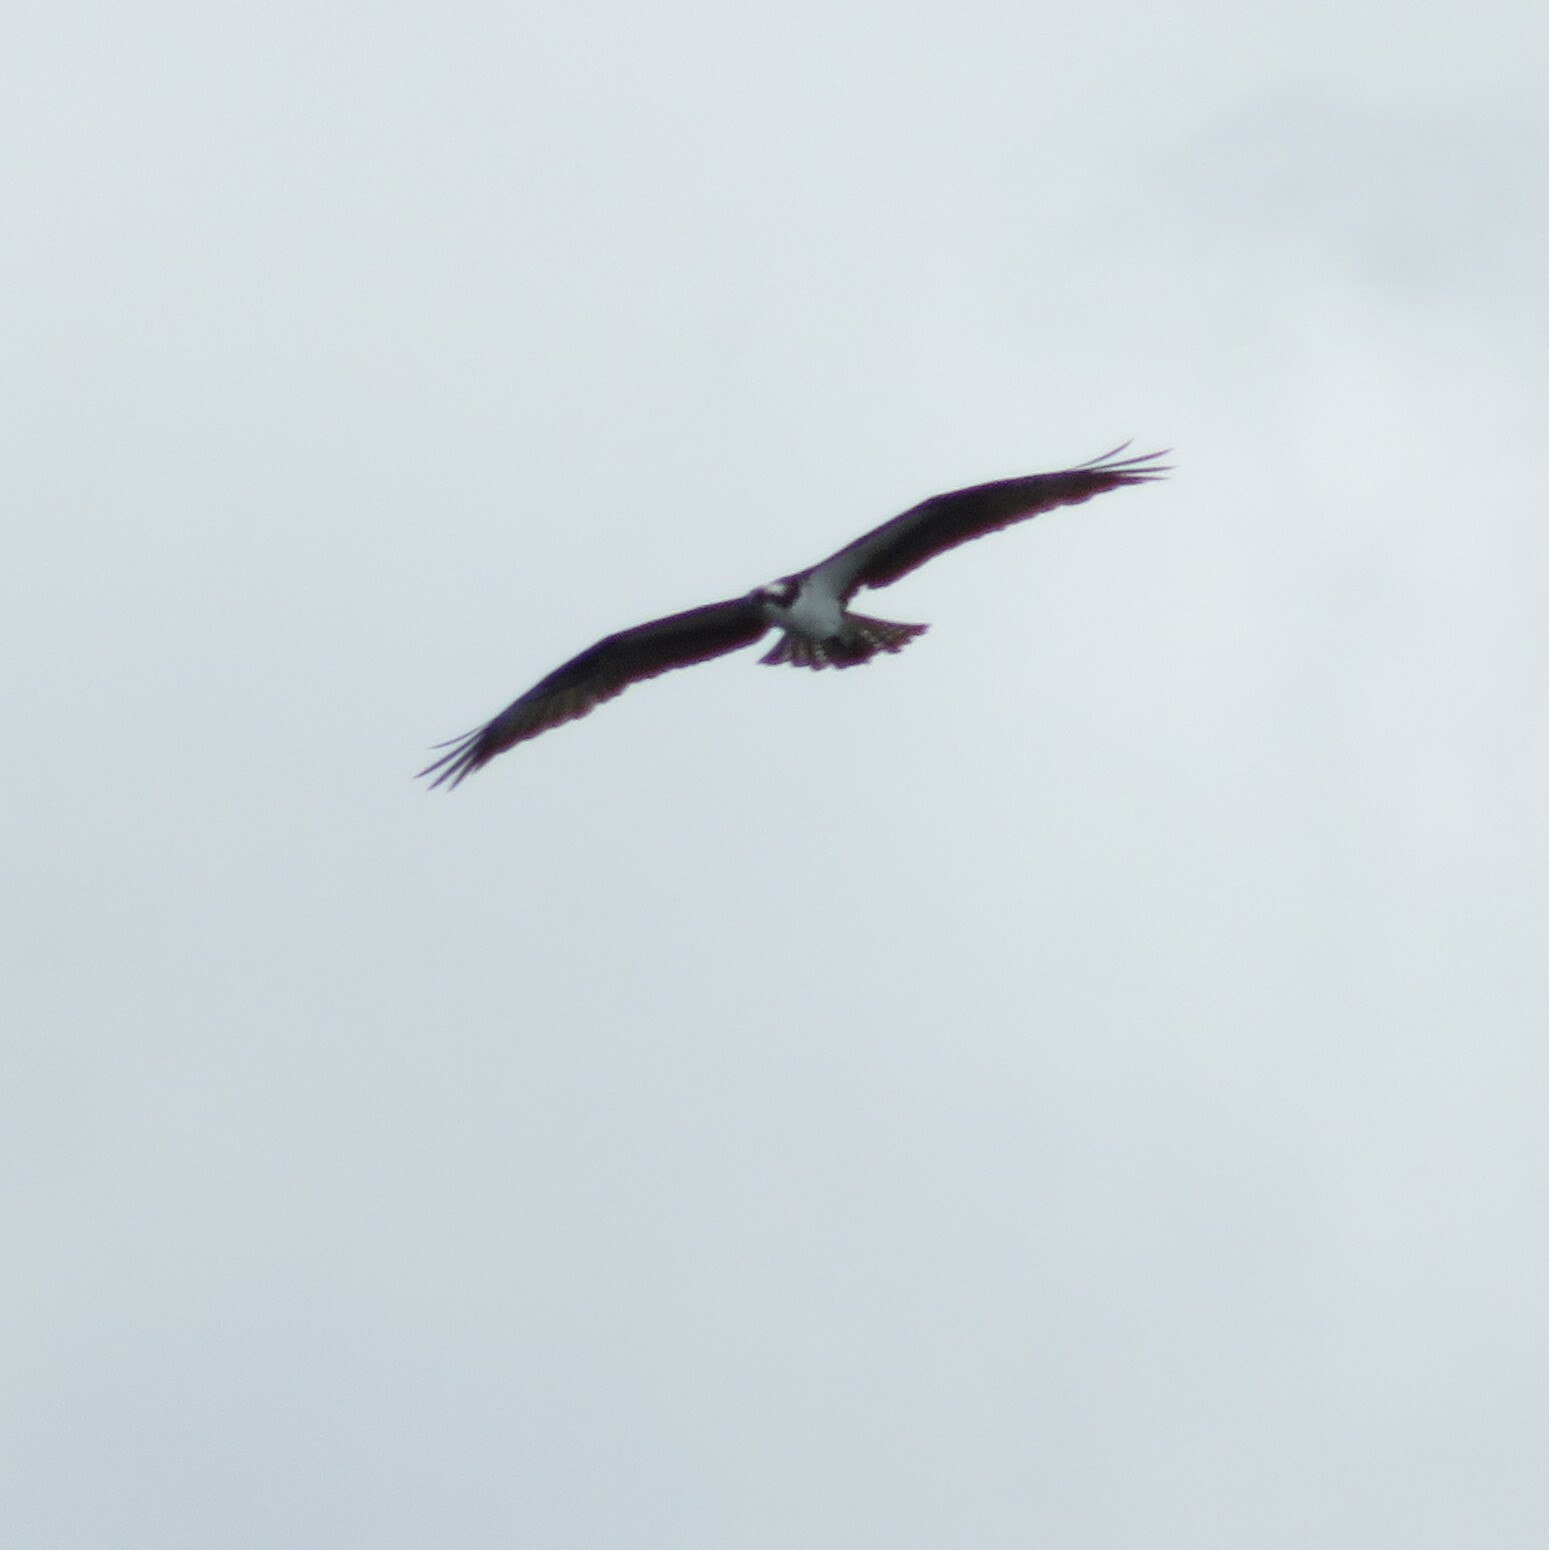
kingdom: Animalia
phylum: Chordata
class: Aves
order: Accipitriformes
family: Pandionidae
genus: Pandion
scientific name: Pandion haliaetus
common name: Osprey
